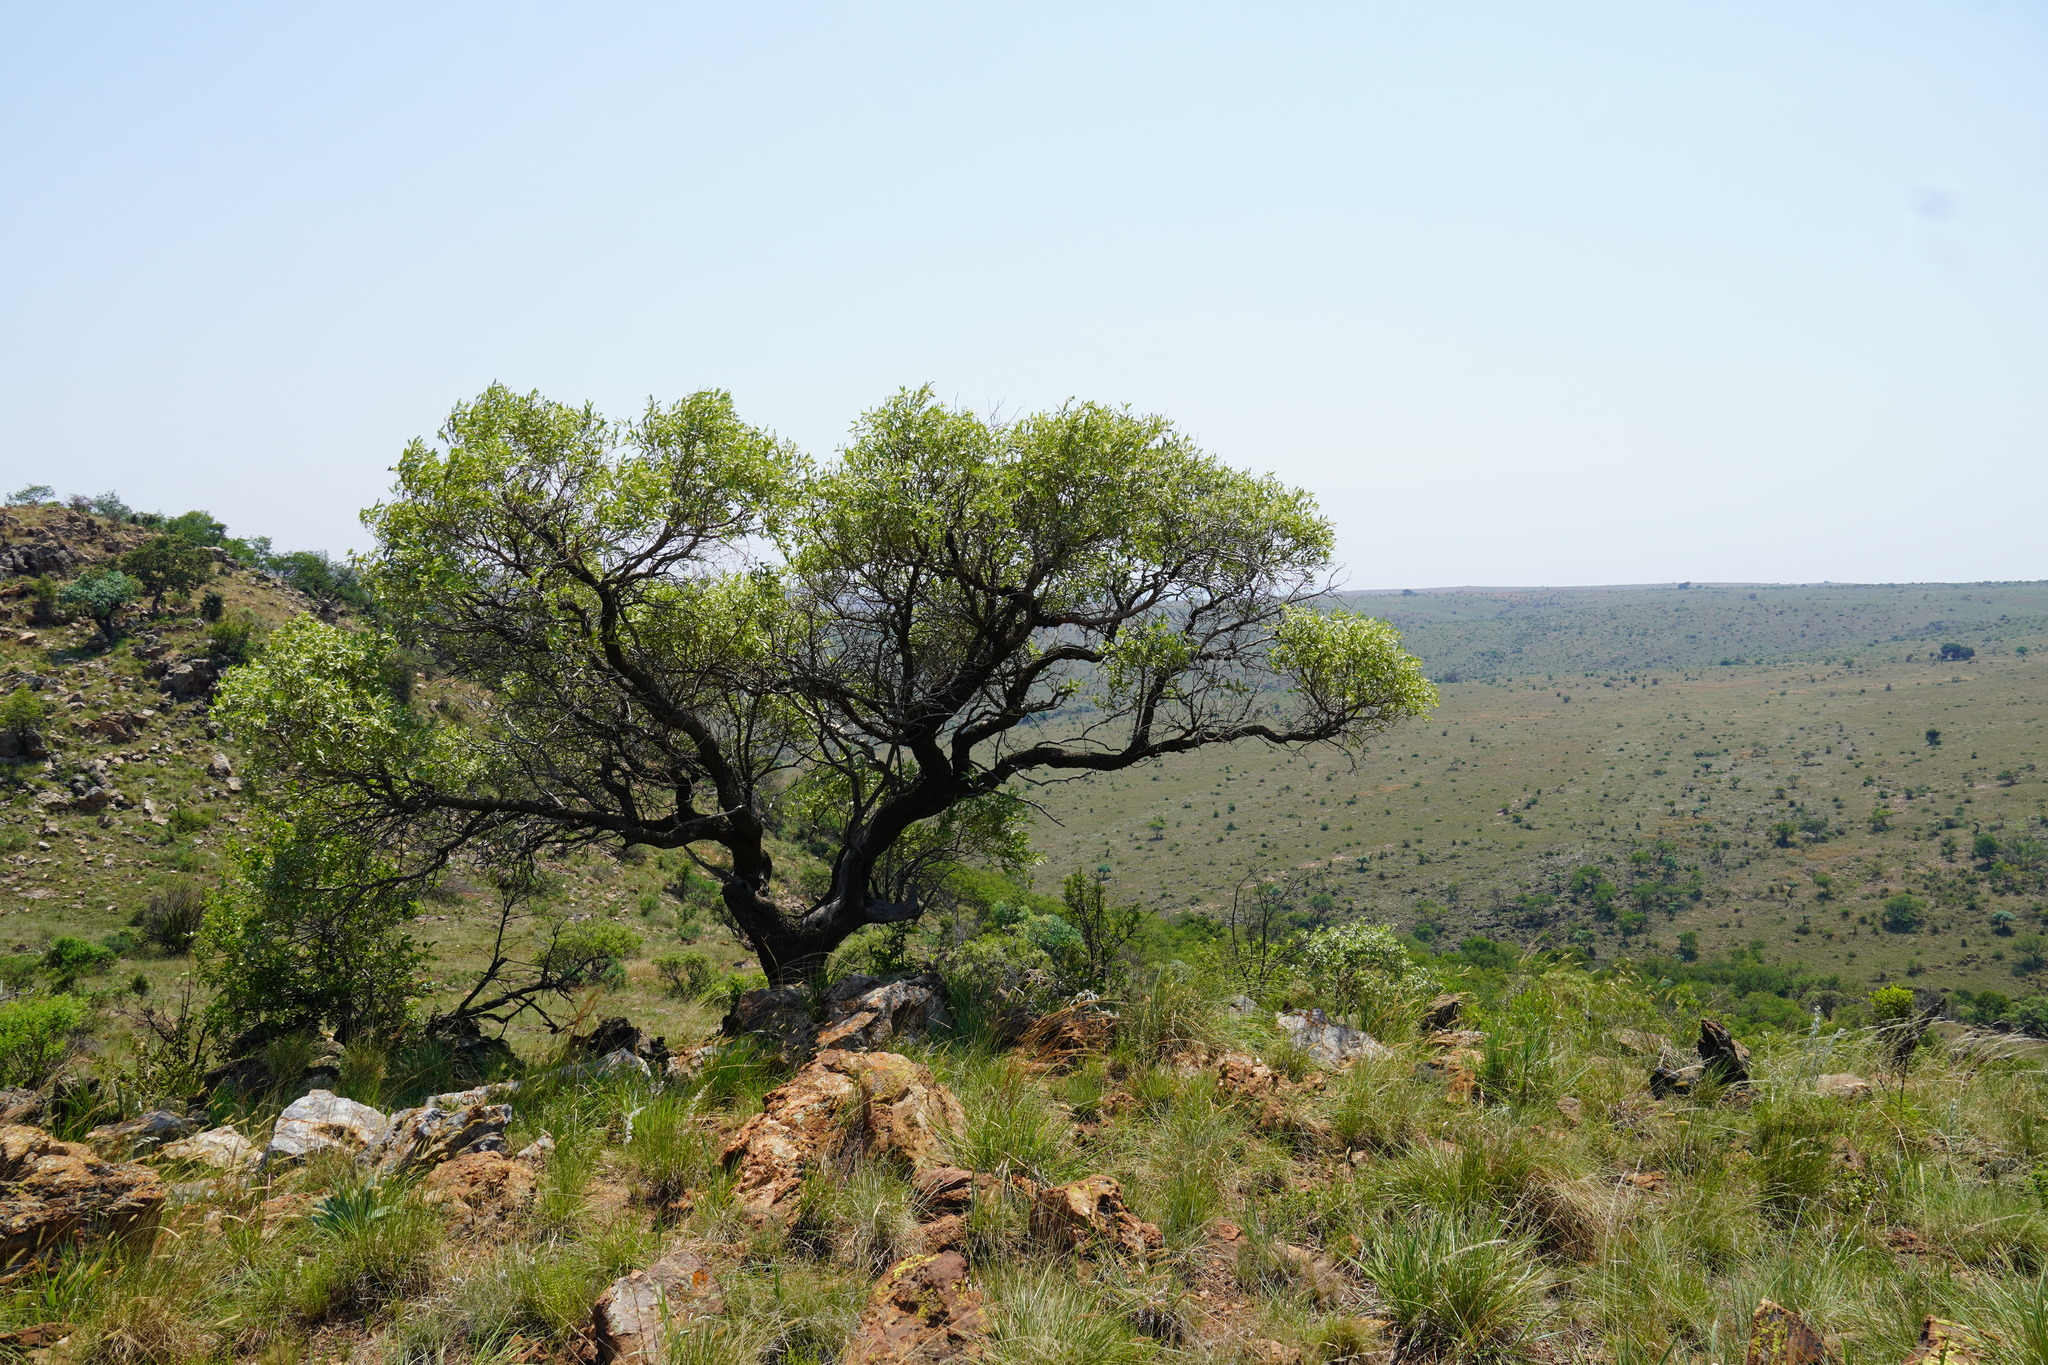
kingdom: Plantae
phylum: Tracheophyta
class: Magnoliopsida
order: Sapindales
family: Anacardiaceae
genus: Searsia
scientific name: Searsia leptodictya
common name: Mountain karee
